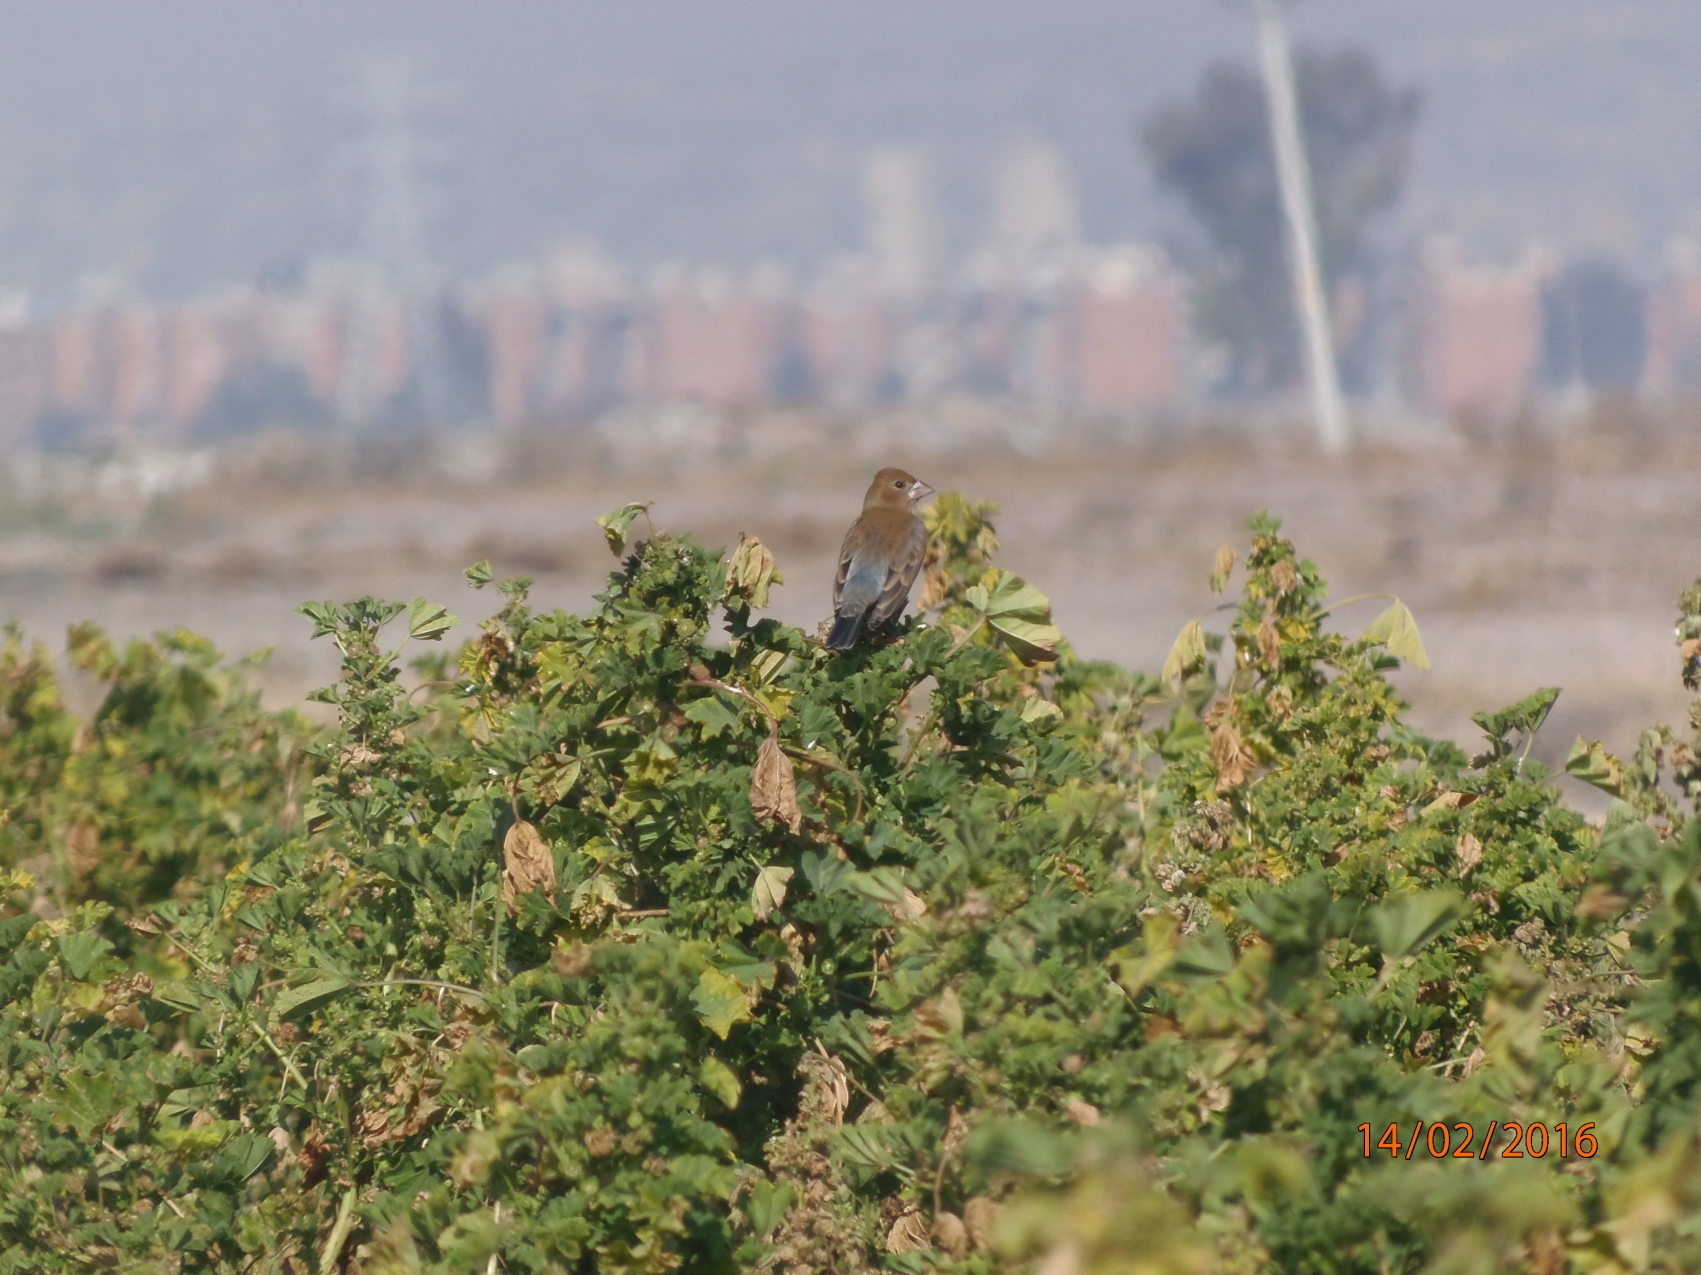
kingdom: Animalia
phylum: Chordata
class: Aves
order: Passeriformes
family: Cardinalidae
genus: Passerina
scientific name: Passerina caerulea
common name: Blue grosbeak
